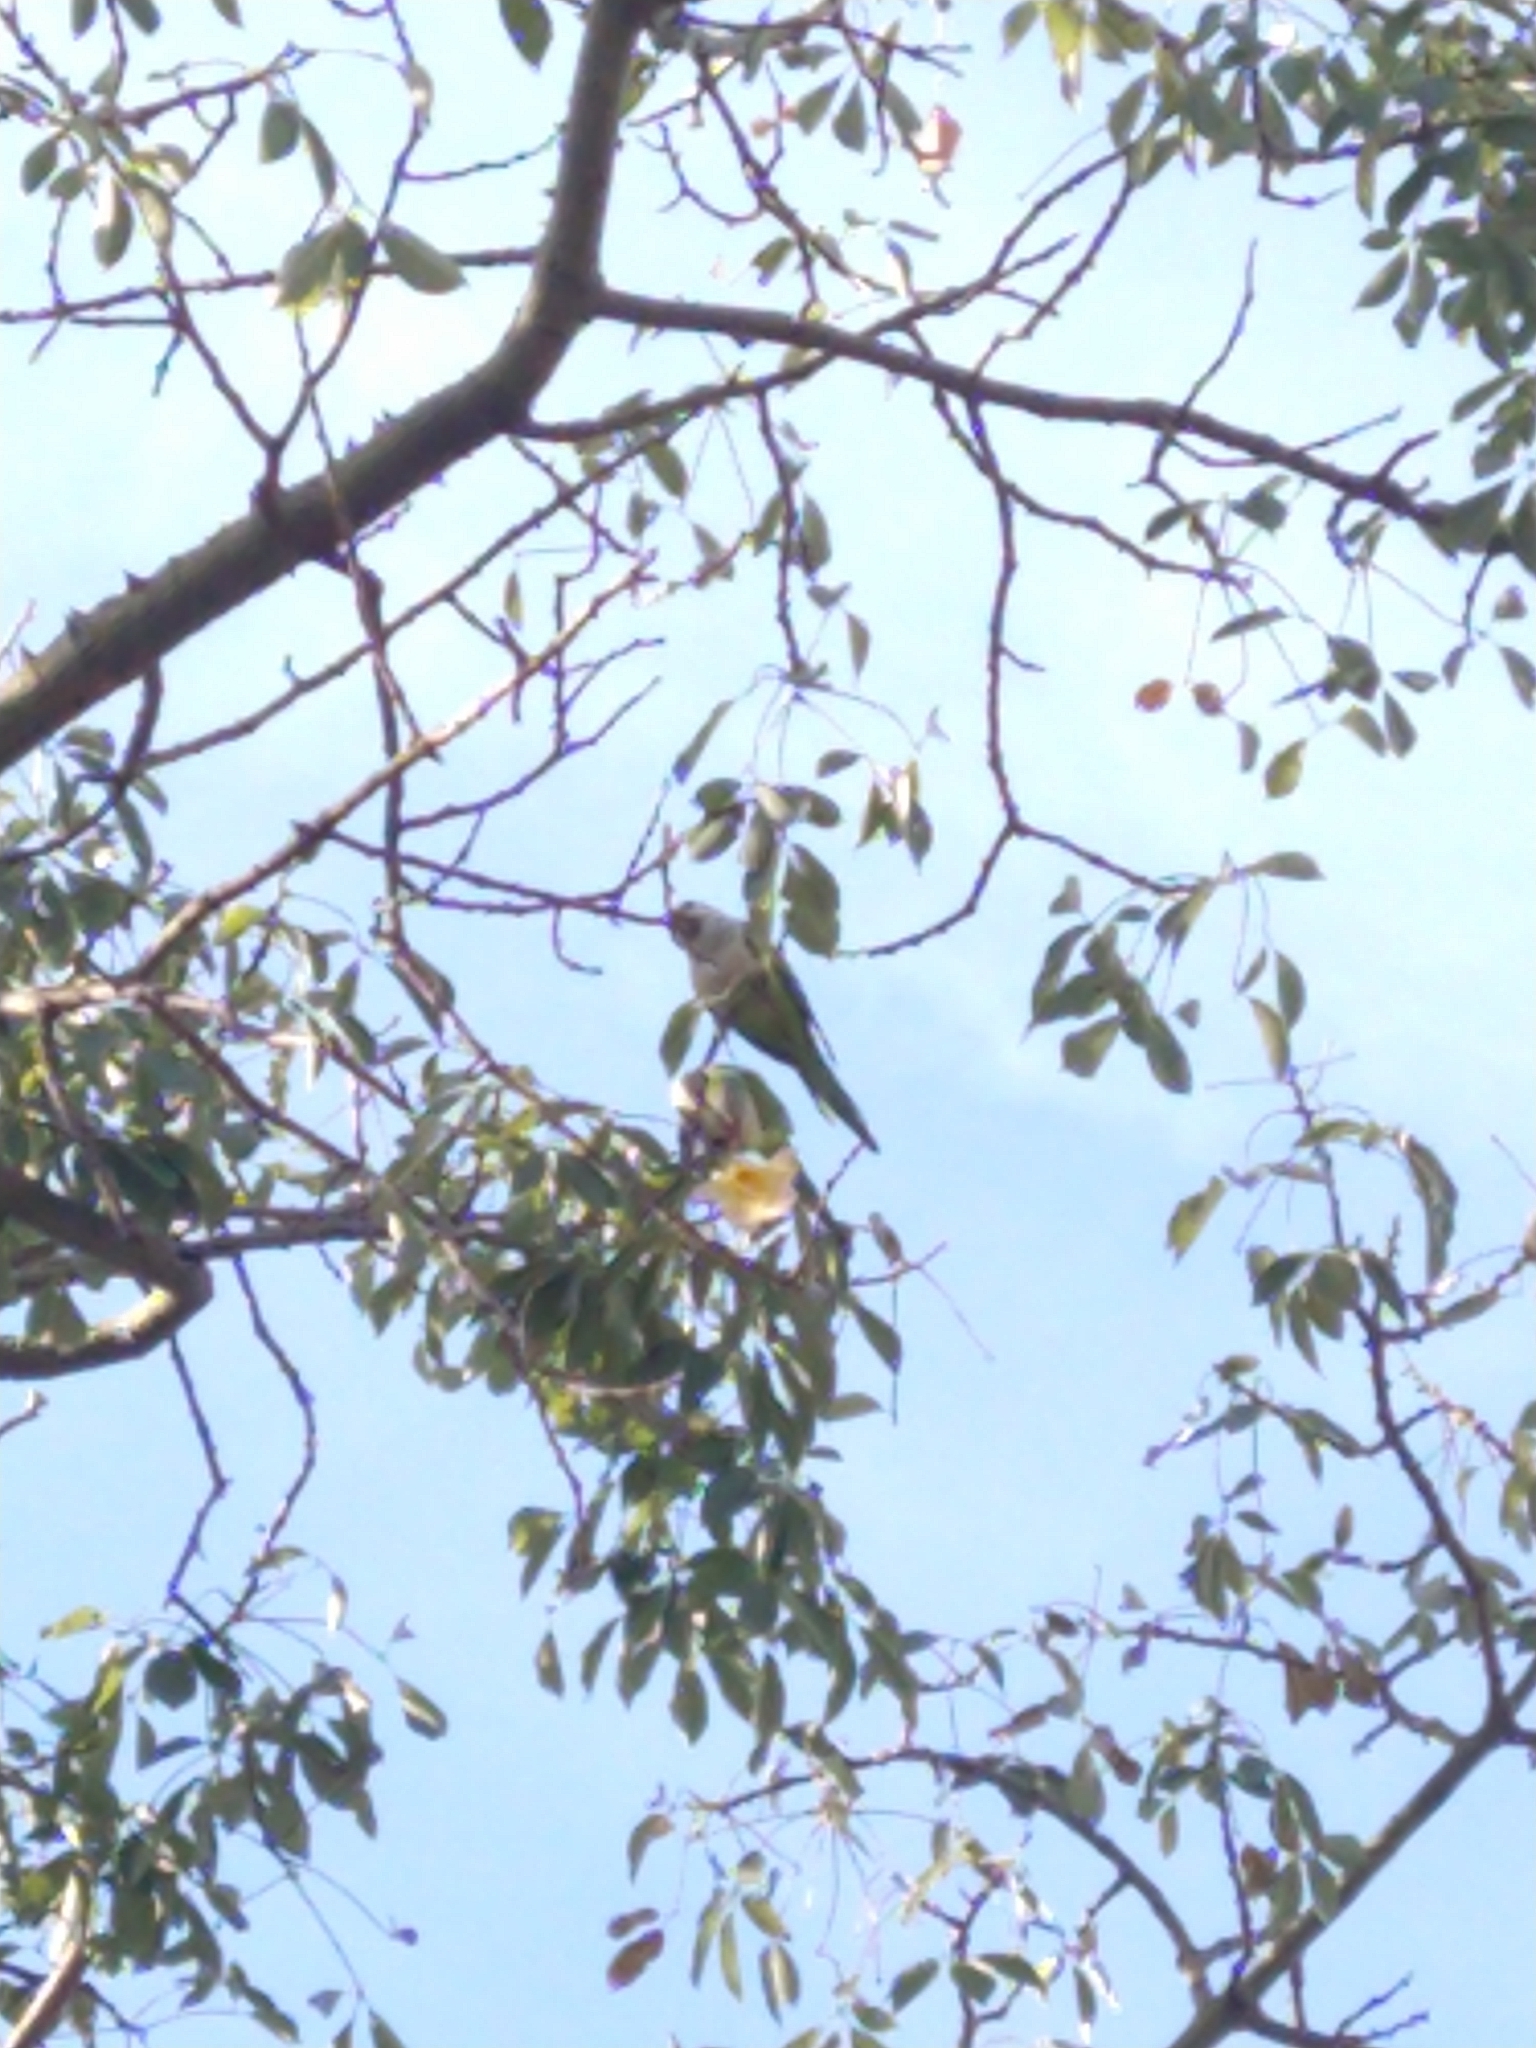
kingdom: Animalia
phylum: Chordata
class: Aves
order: Psittaciformes
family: Psittacidae
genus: Myiopsitta
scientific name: Myiopsitta monachus
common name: Monk parakeet
